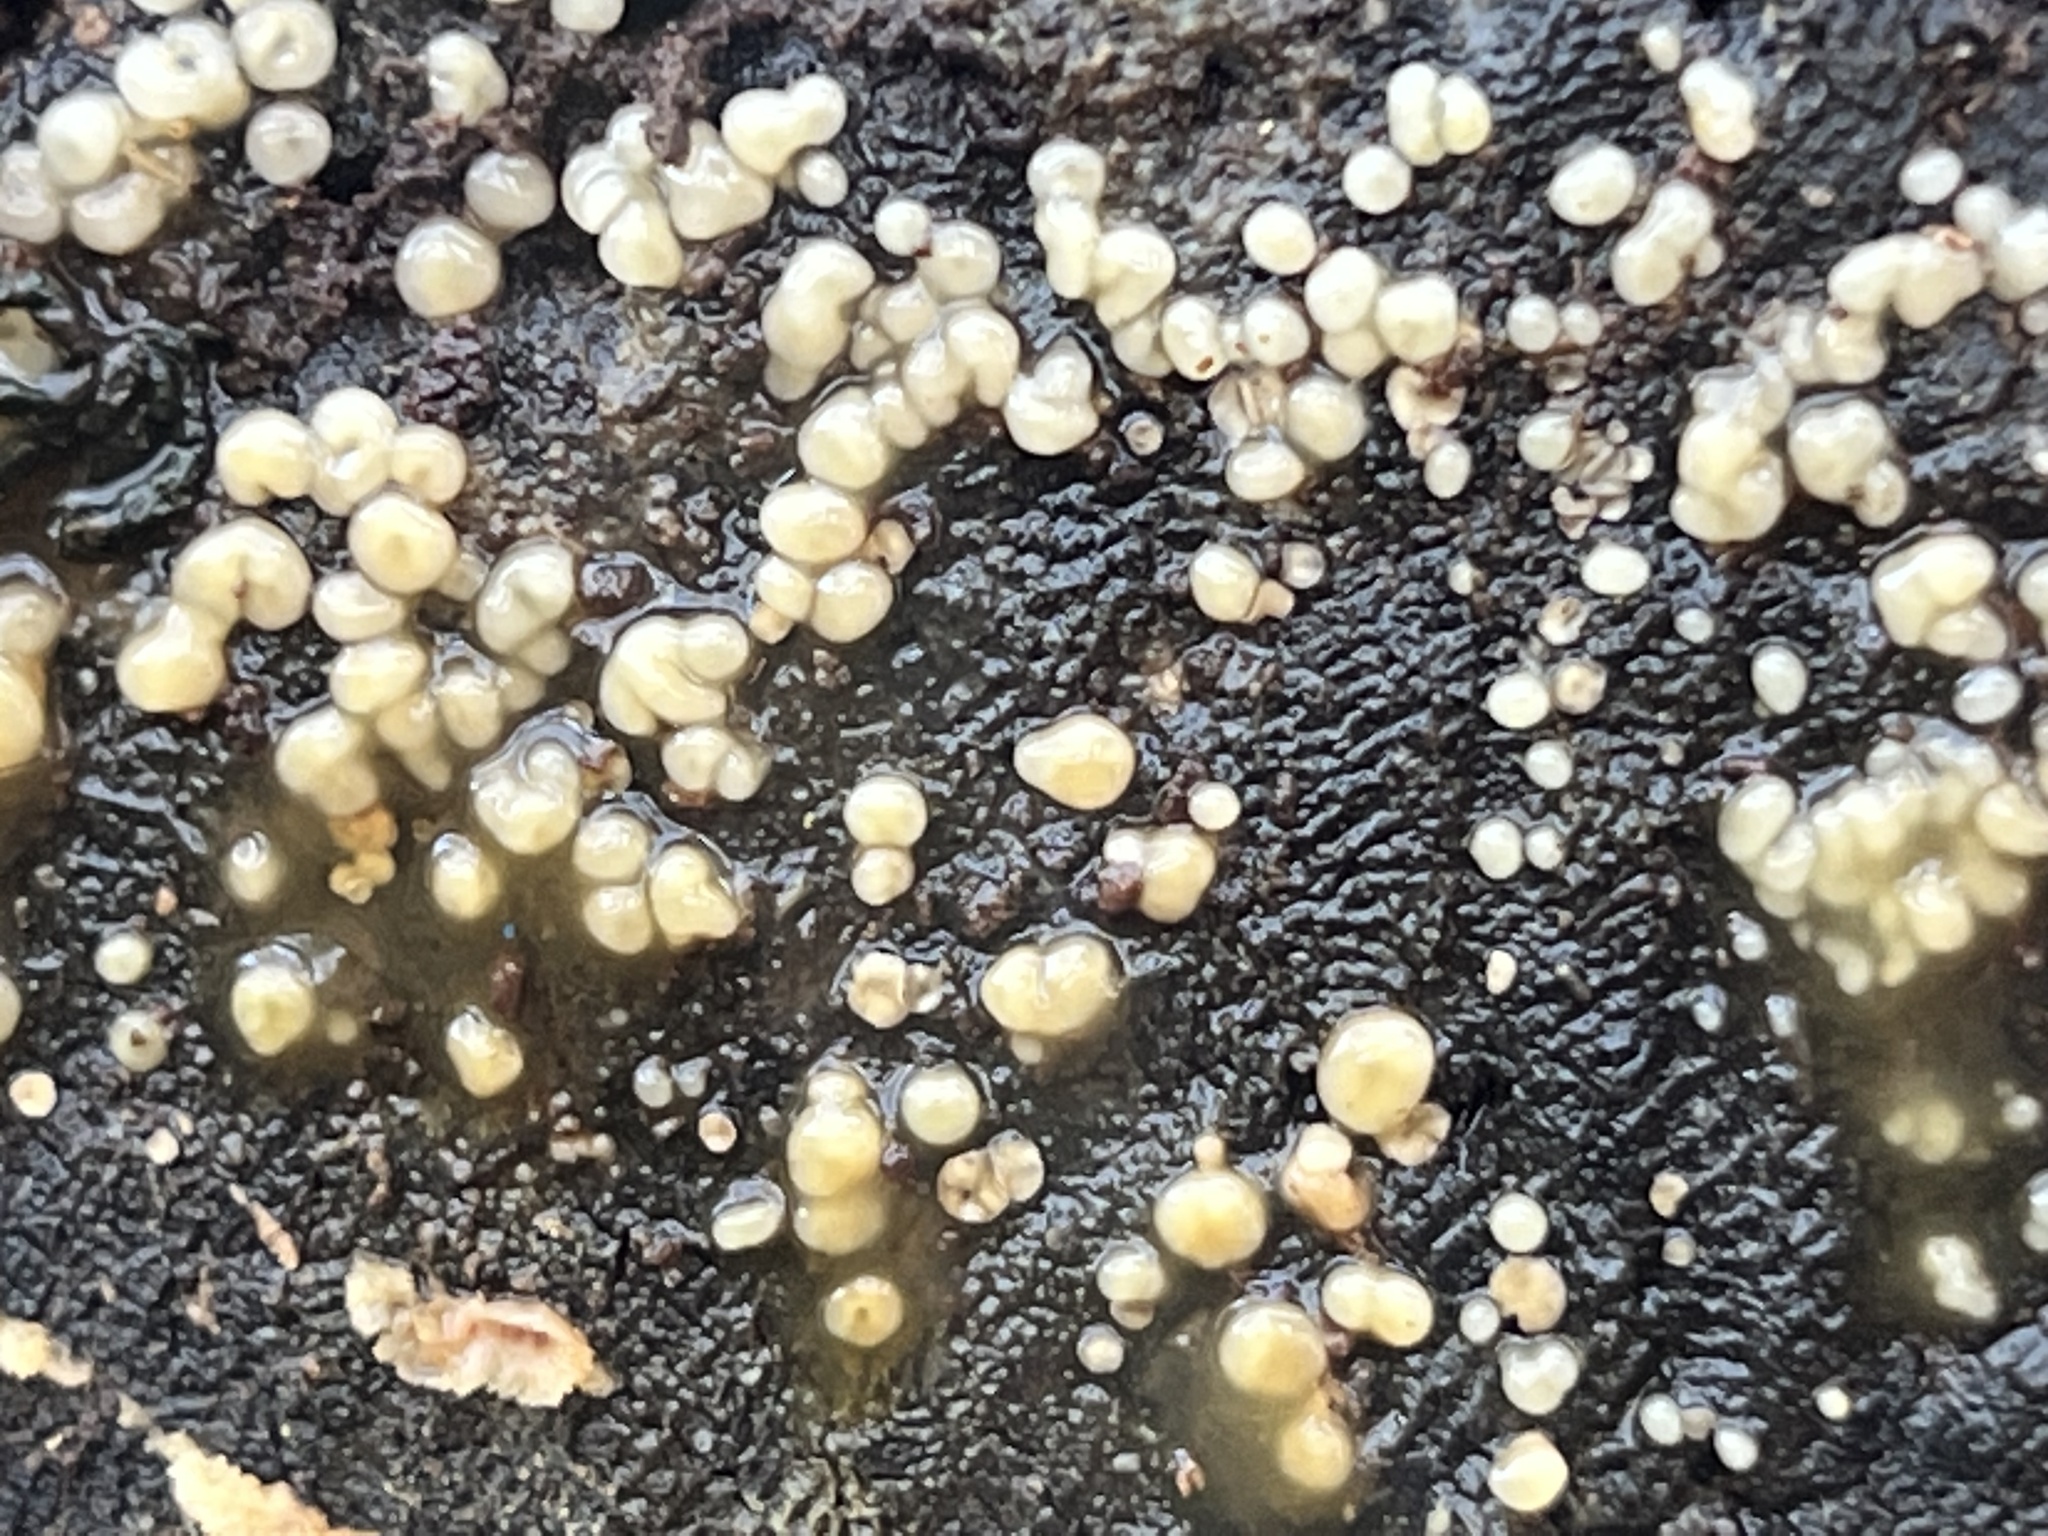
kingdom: Fungi
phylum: Basidiomycota
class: Atractiellomycetes
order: Atractiellales
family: Phleogenaceae
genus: Helicogloea
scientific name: Helicogloea compressa
